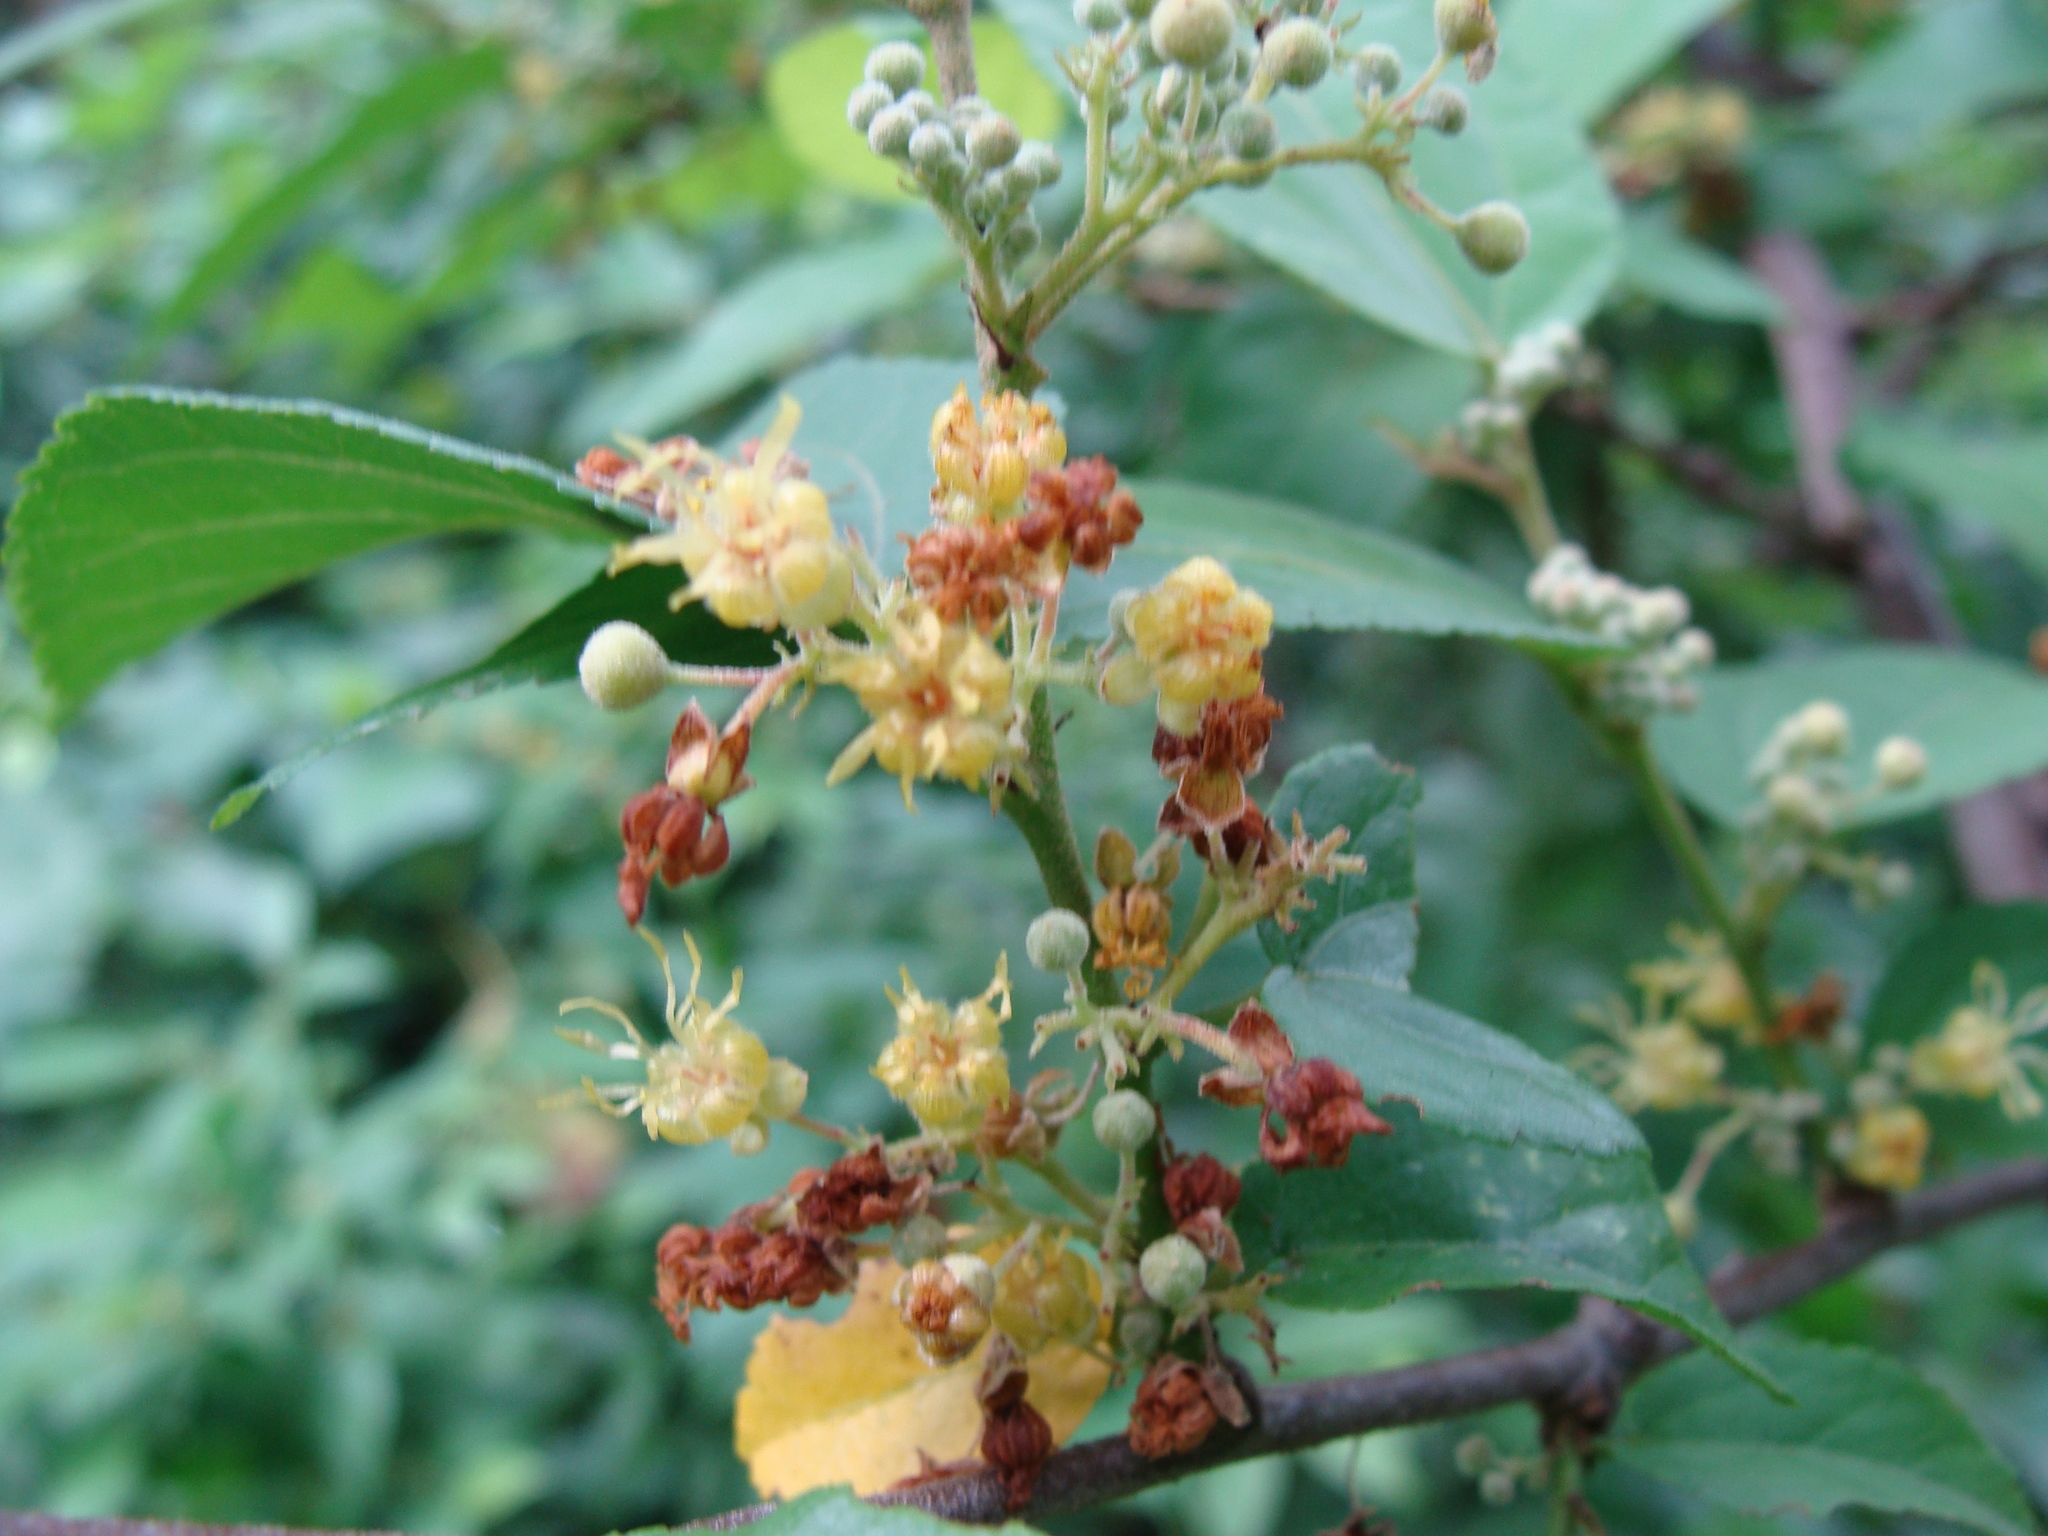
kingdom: Plantae
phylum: Tracheophyta
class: Magnoliopsida
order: Malvales
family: Malvaceae
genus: Guazuma
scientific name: Guazuma ulmifolia
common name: Bastard-cedar
